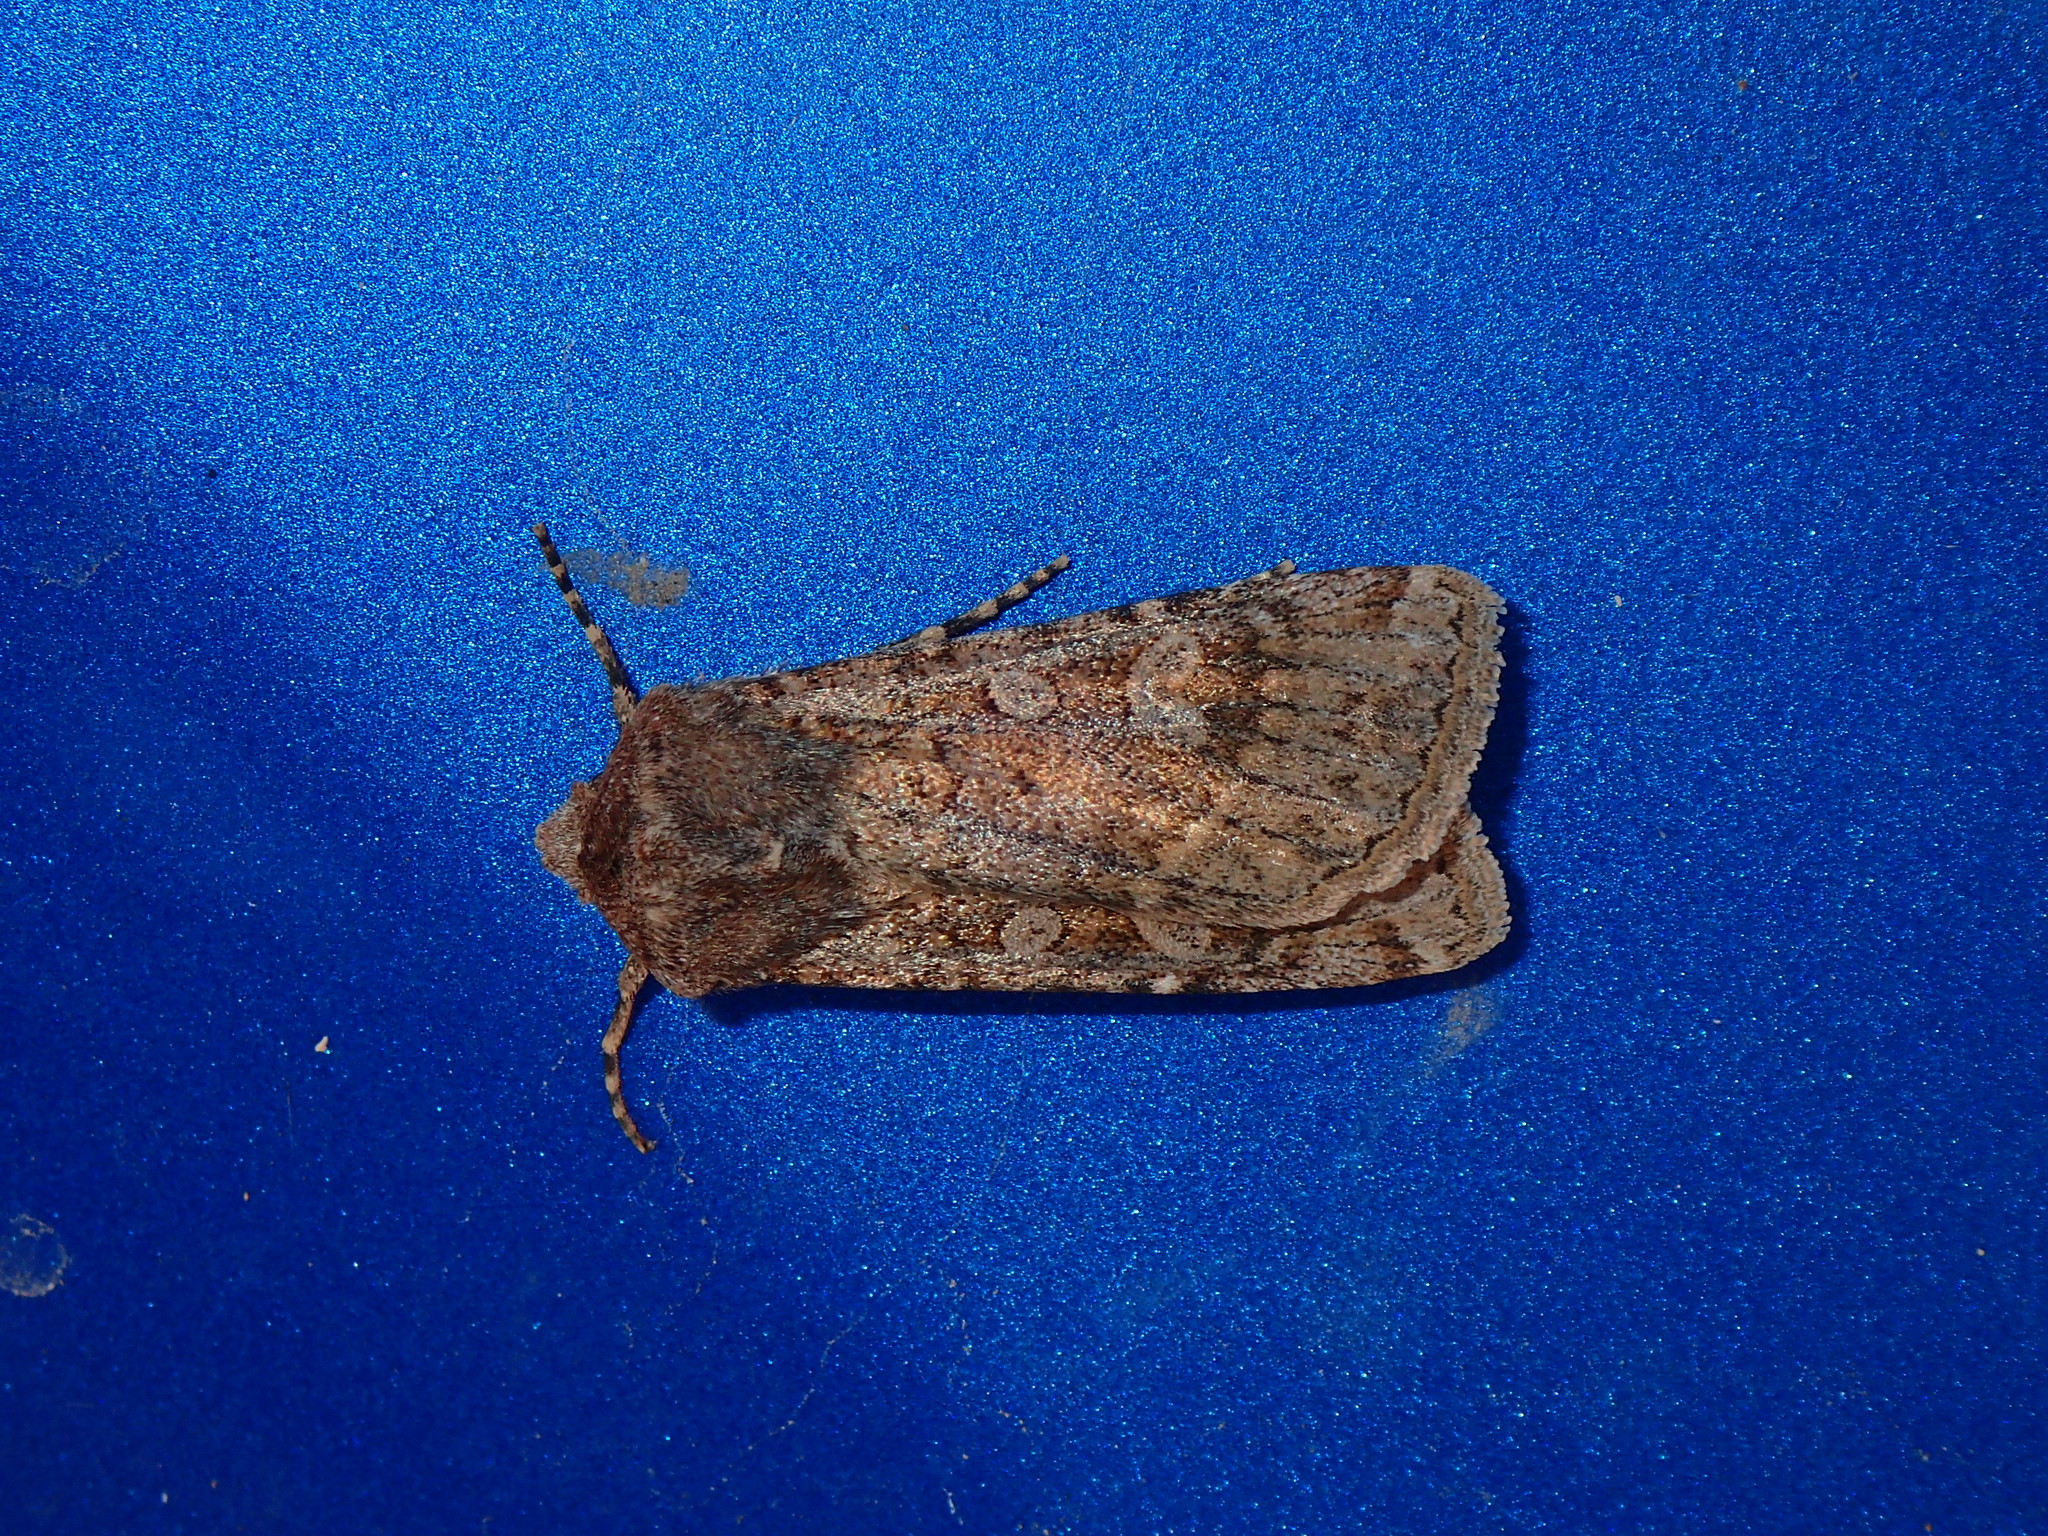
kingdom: Animalia
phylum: Arthropoda
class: Insecta
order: Lepidoptera
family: Noctuidae
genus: Euxoa
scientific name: Euxoa canariensis
